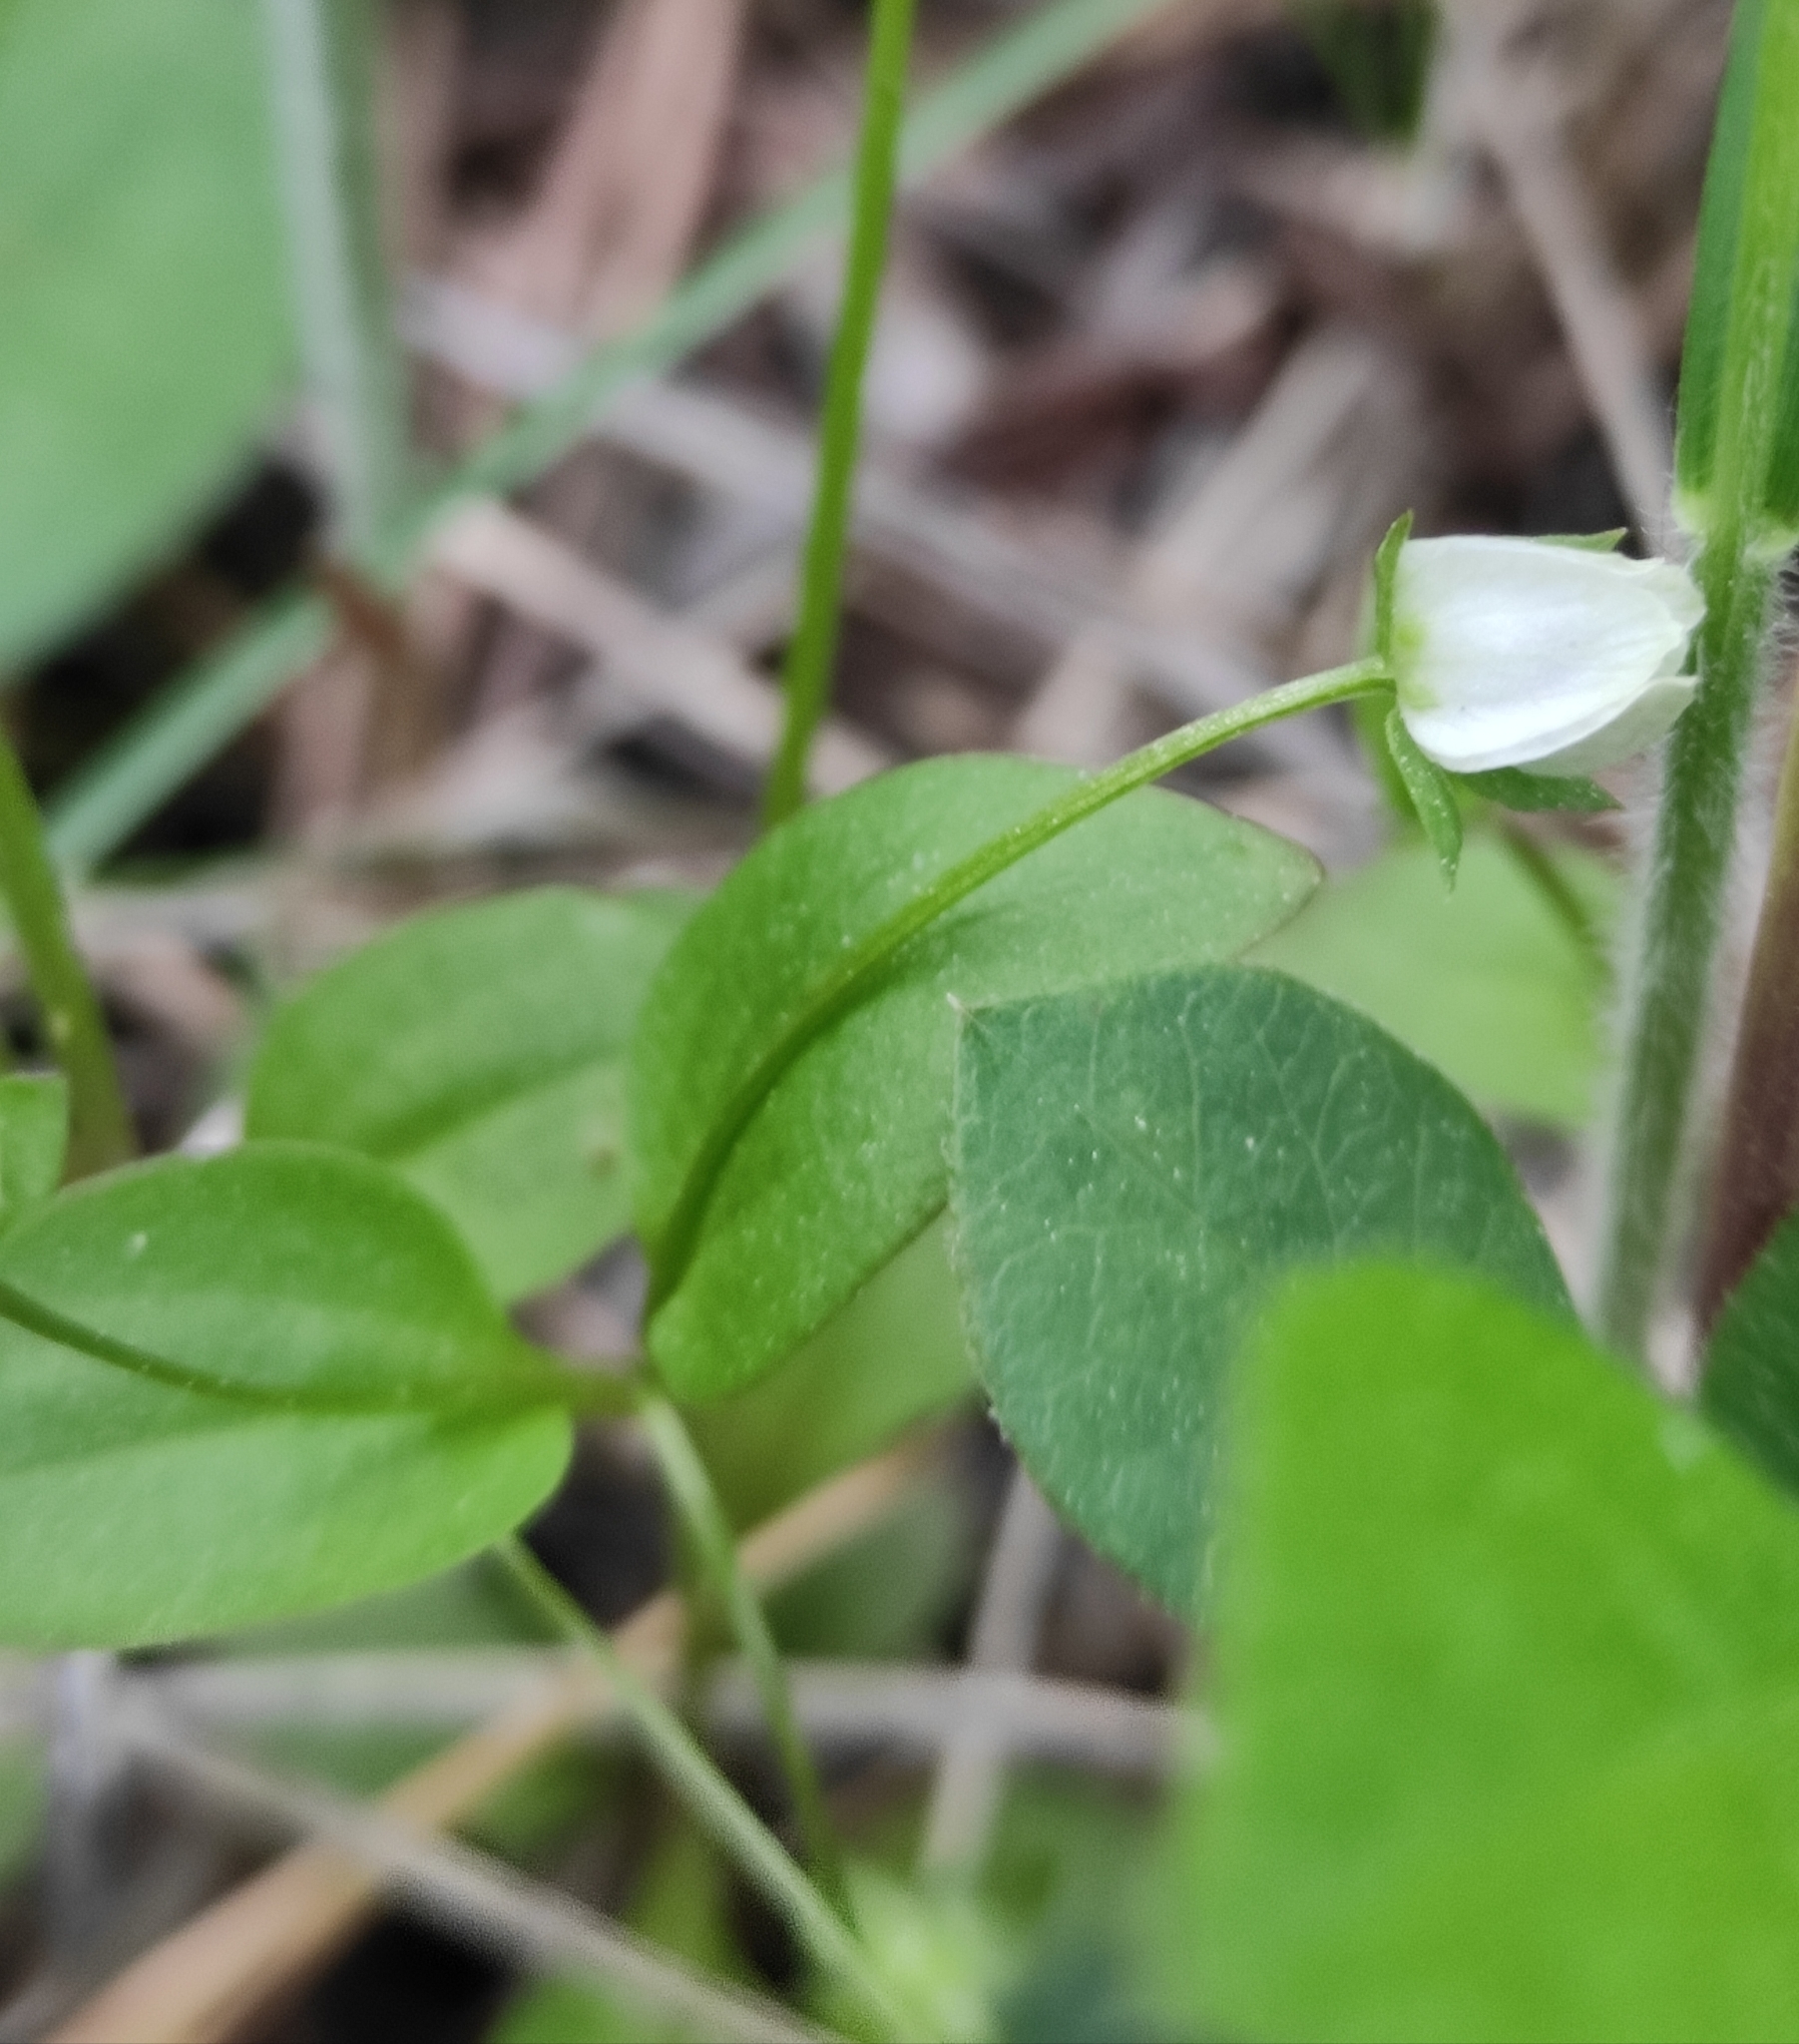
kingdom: Plantae
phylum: Tracheophyta
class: Magnoliopsida
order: Gentianales
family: Gentianaceae
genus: Swertia
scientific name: Swertia dichotoma
